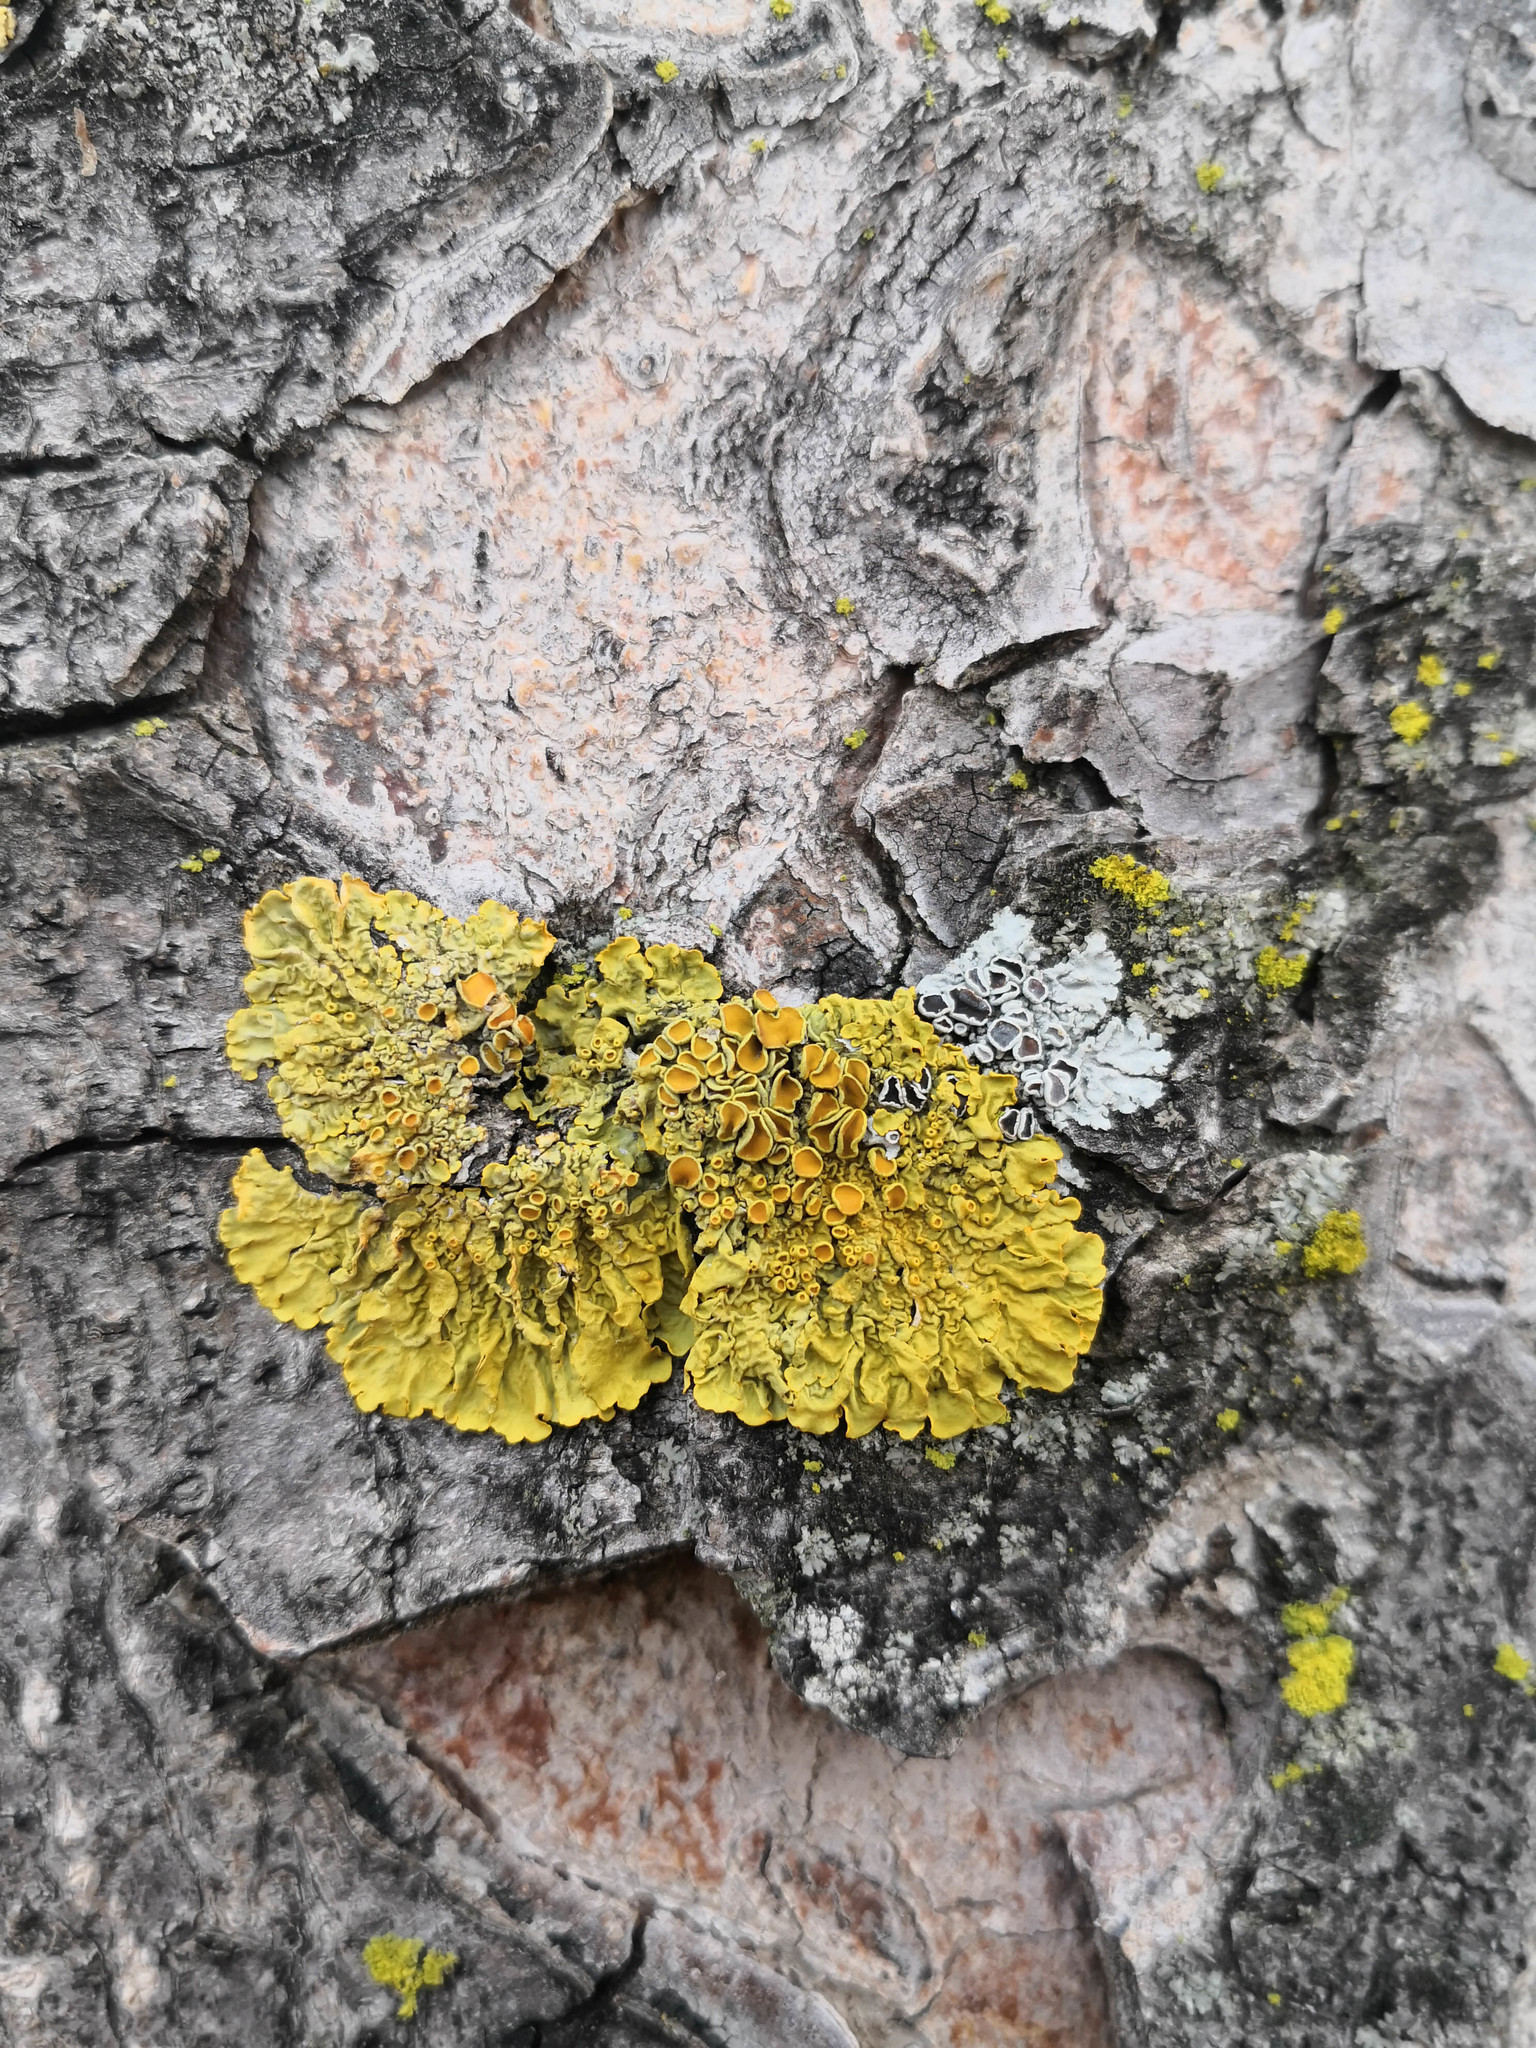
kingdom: Fungi
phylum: Ascomycota
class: Lecanoromycetes
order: Teloschistales
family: Teloschistaceae
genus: Xanthoria
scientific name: Xanthoria parietina
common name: Common orange lichen
